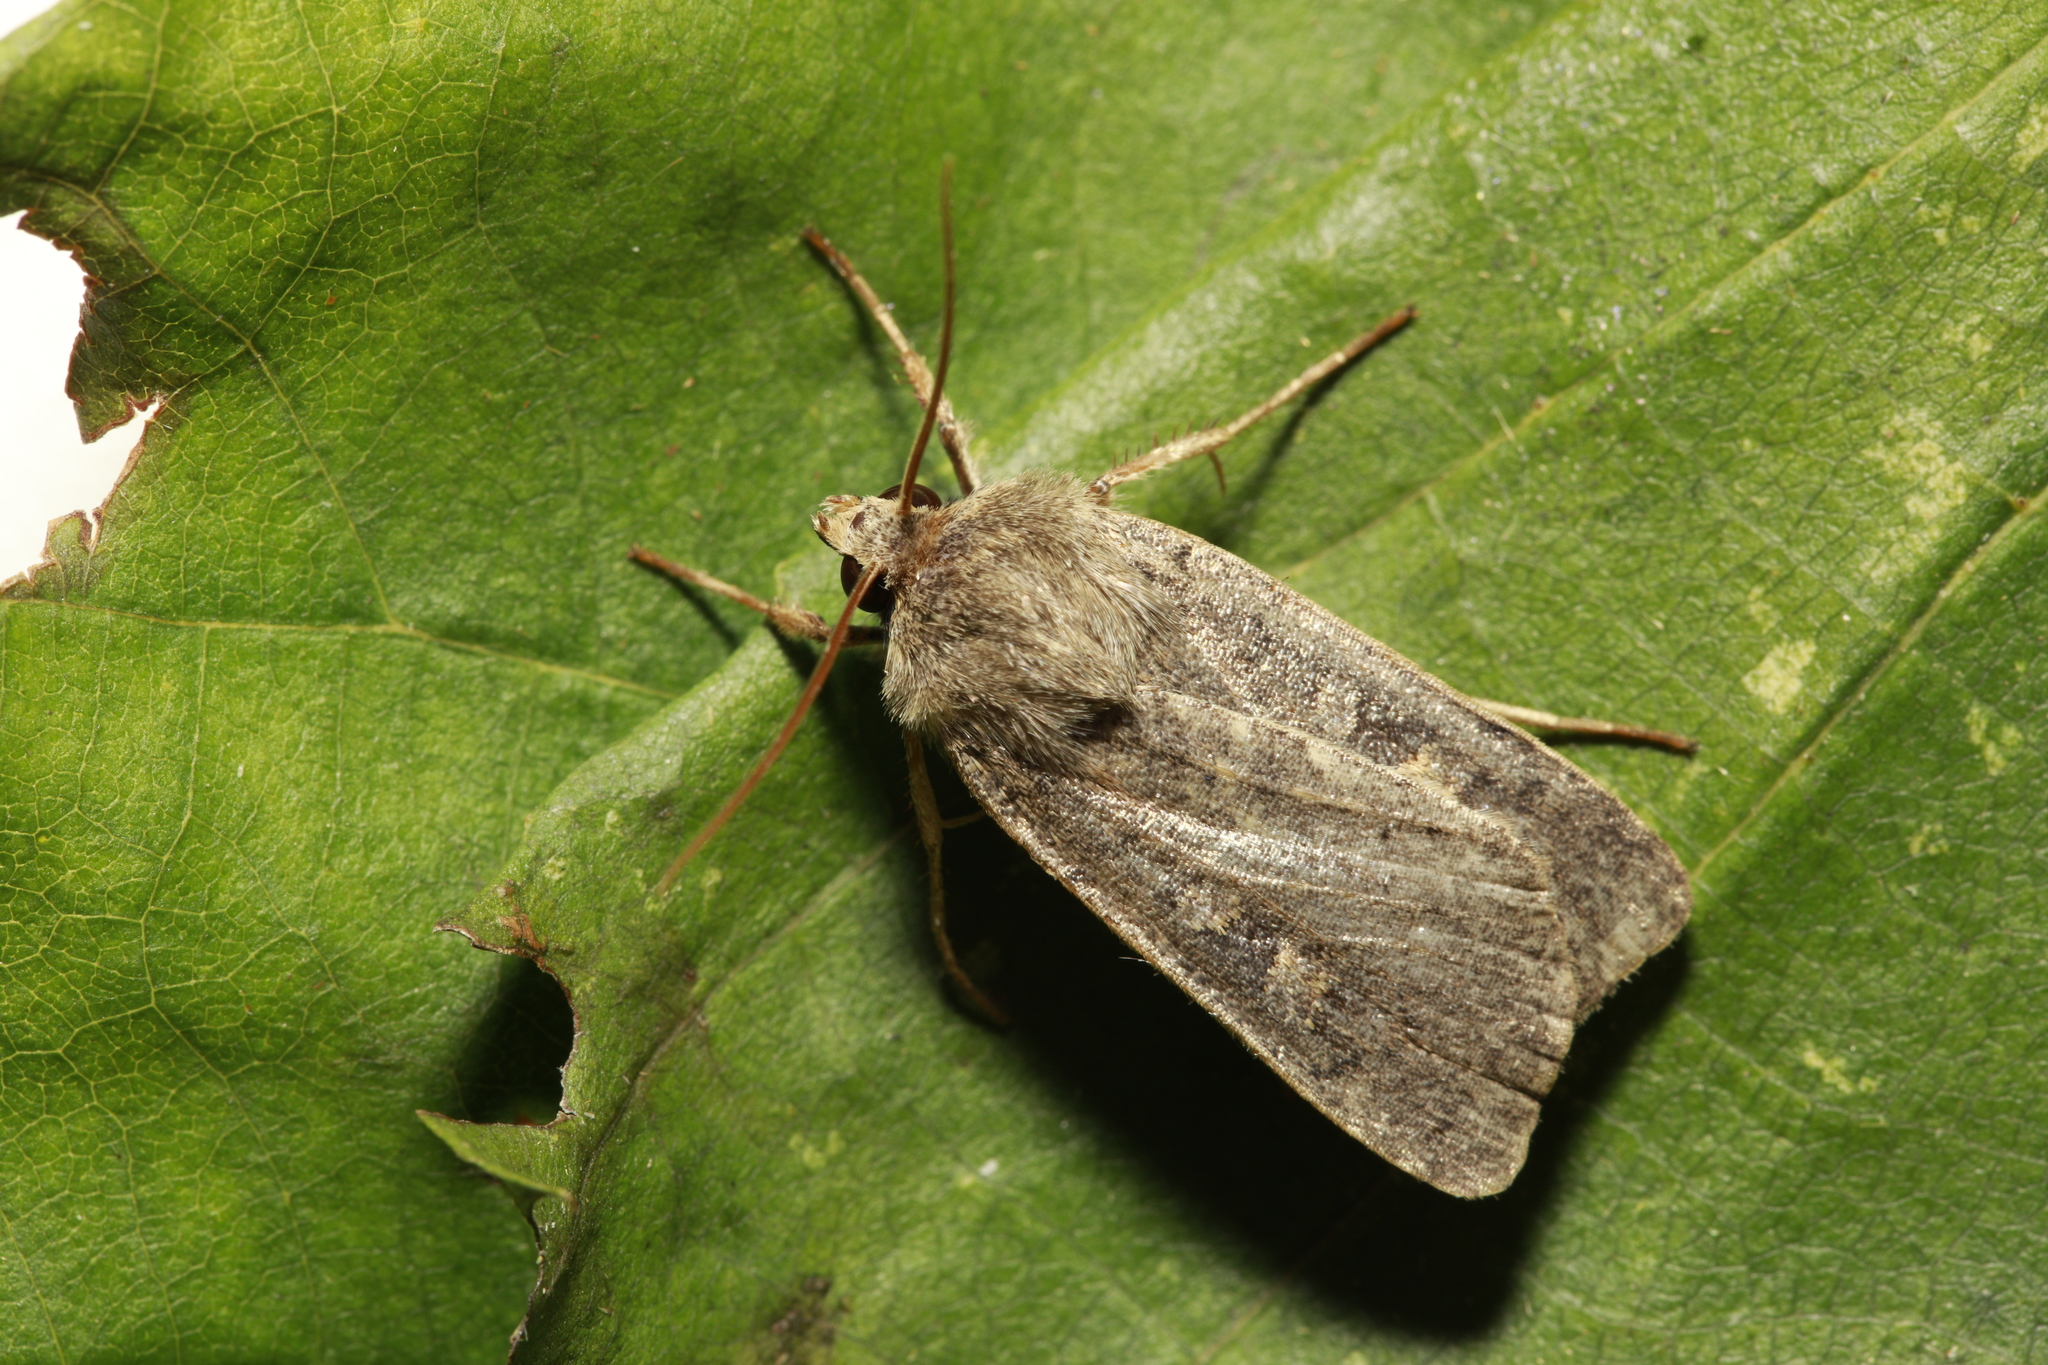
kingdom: Animalia
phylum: Arthropoda
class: Insecta
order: Lepidoptera
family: Noctuidae
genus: Xestia
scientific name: Xestia xanthographa
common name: Square-spot rustic
